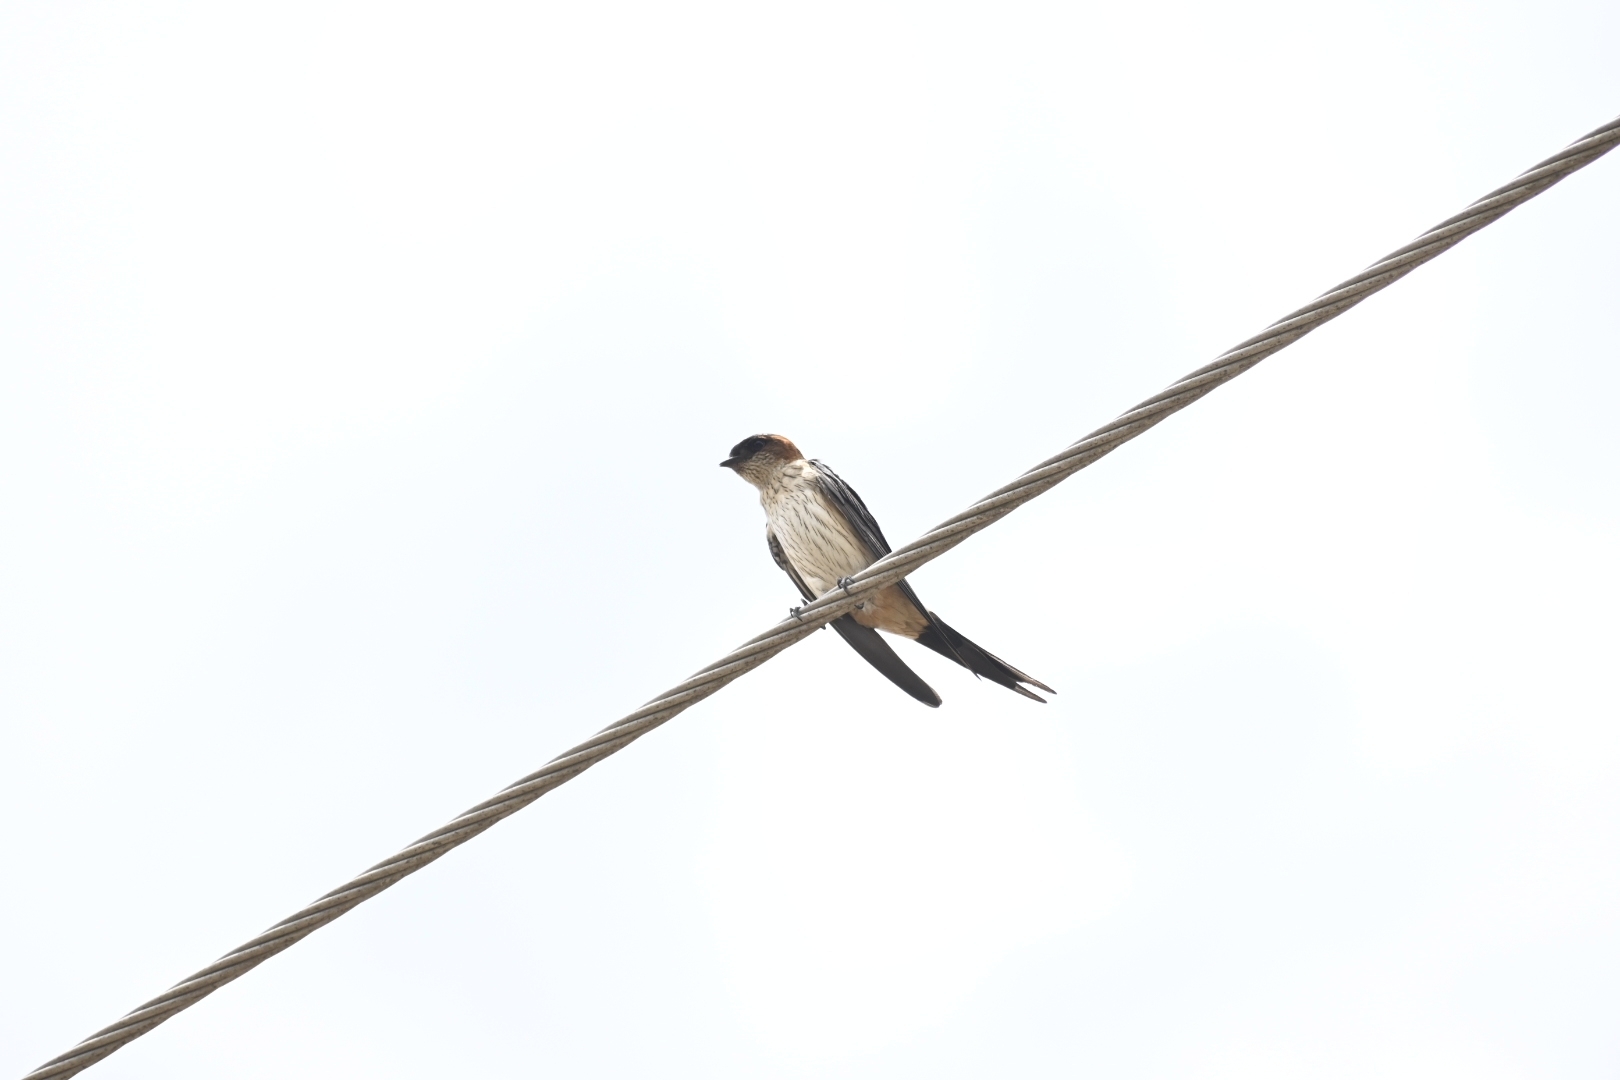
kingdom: Animalia
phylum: Chordata
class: Aves
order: Passeriformes
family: Hirundinidae
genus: Cecropis
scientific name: Cecropis daurica
